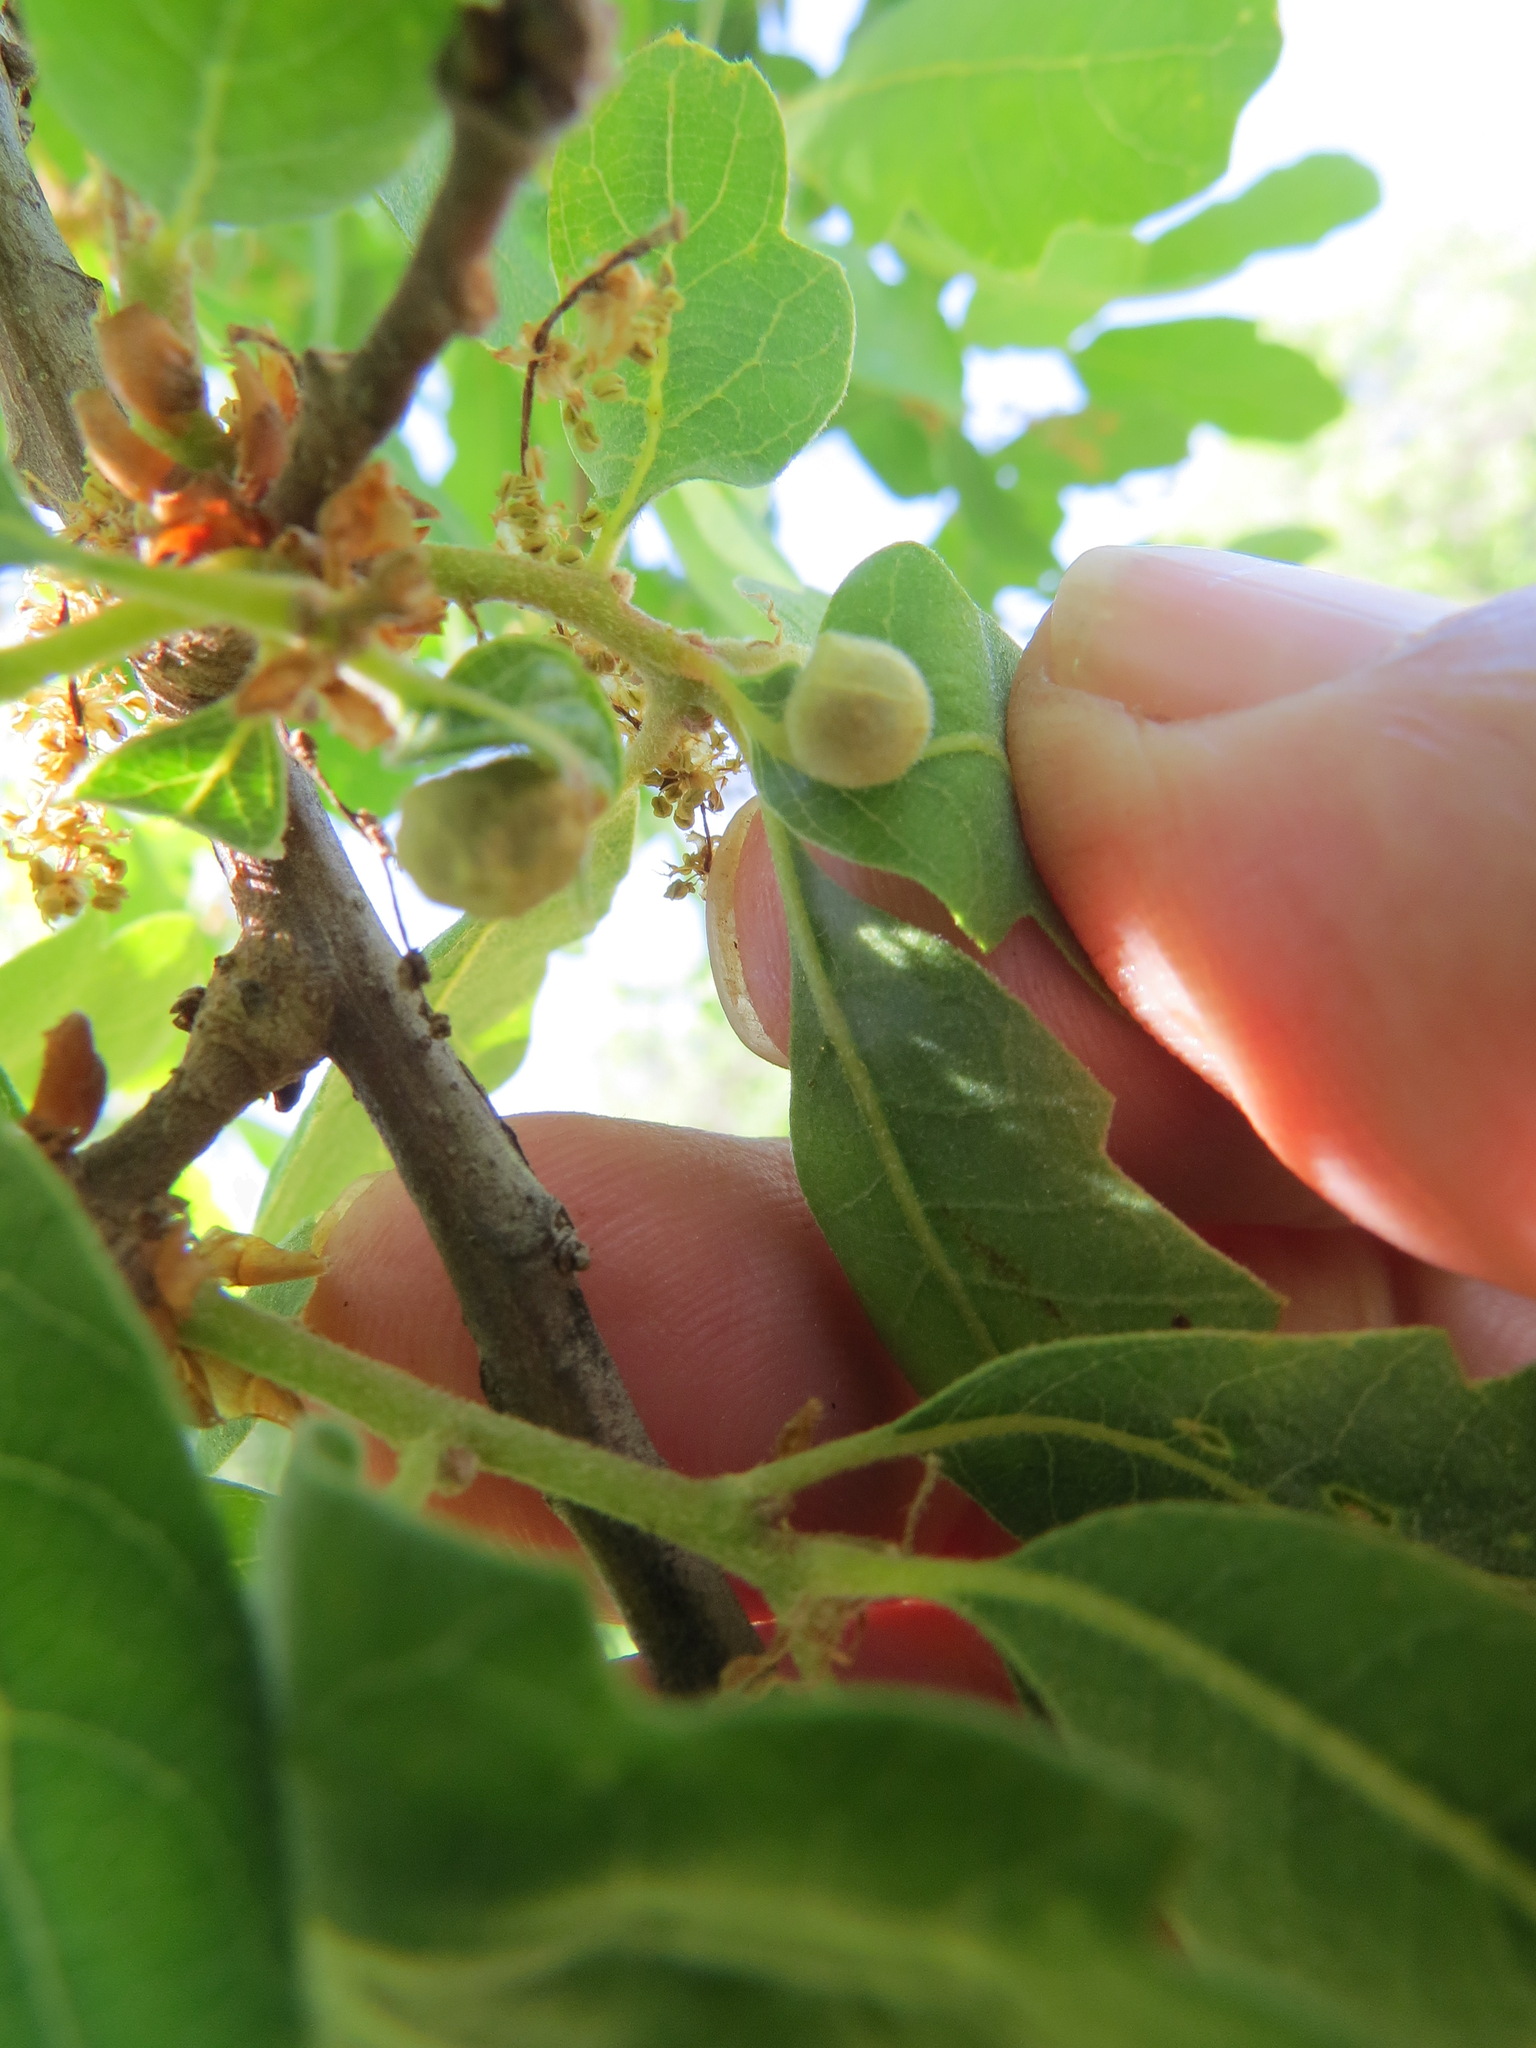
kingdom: Animalia
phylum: Arthropoda
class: Insecta
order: Hymenoptera
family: Cynipidae
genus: Andricus
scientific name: Andricus
